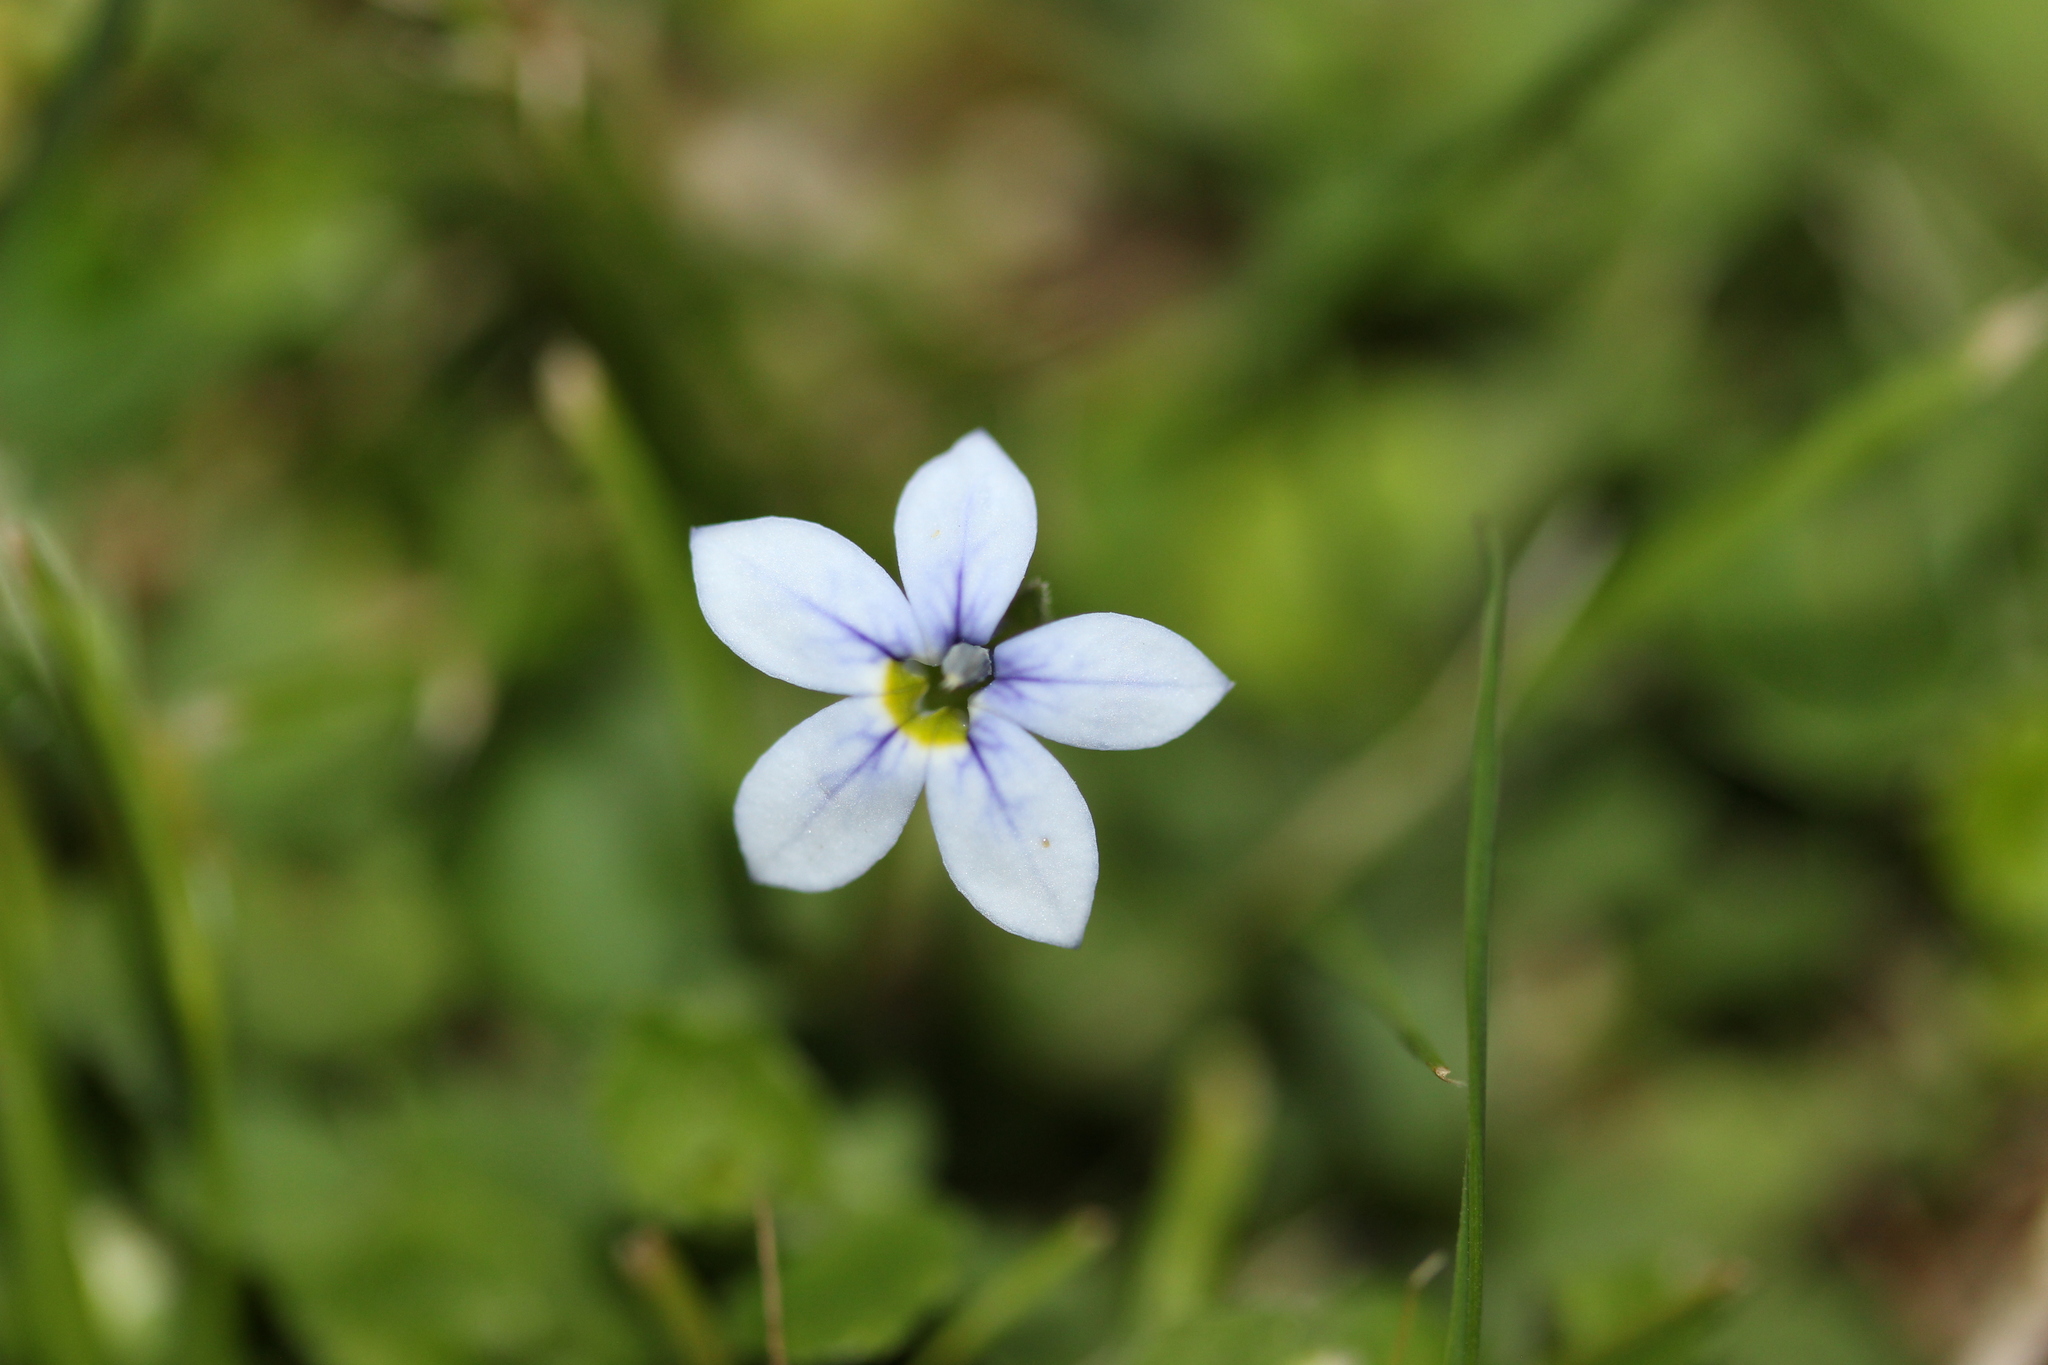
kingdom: Plantae
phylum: Tracheophyta
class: Magnoliopsida
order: Asterales
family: Campanulaceae
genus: Lobelia
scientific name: Lobelia pedunculata
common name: Matted pratia
